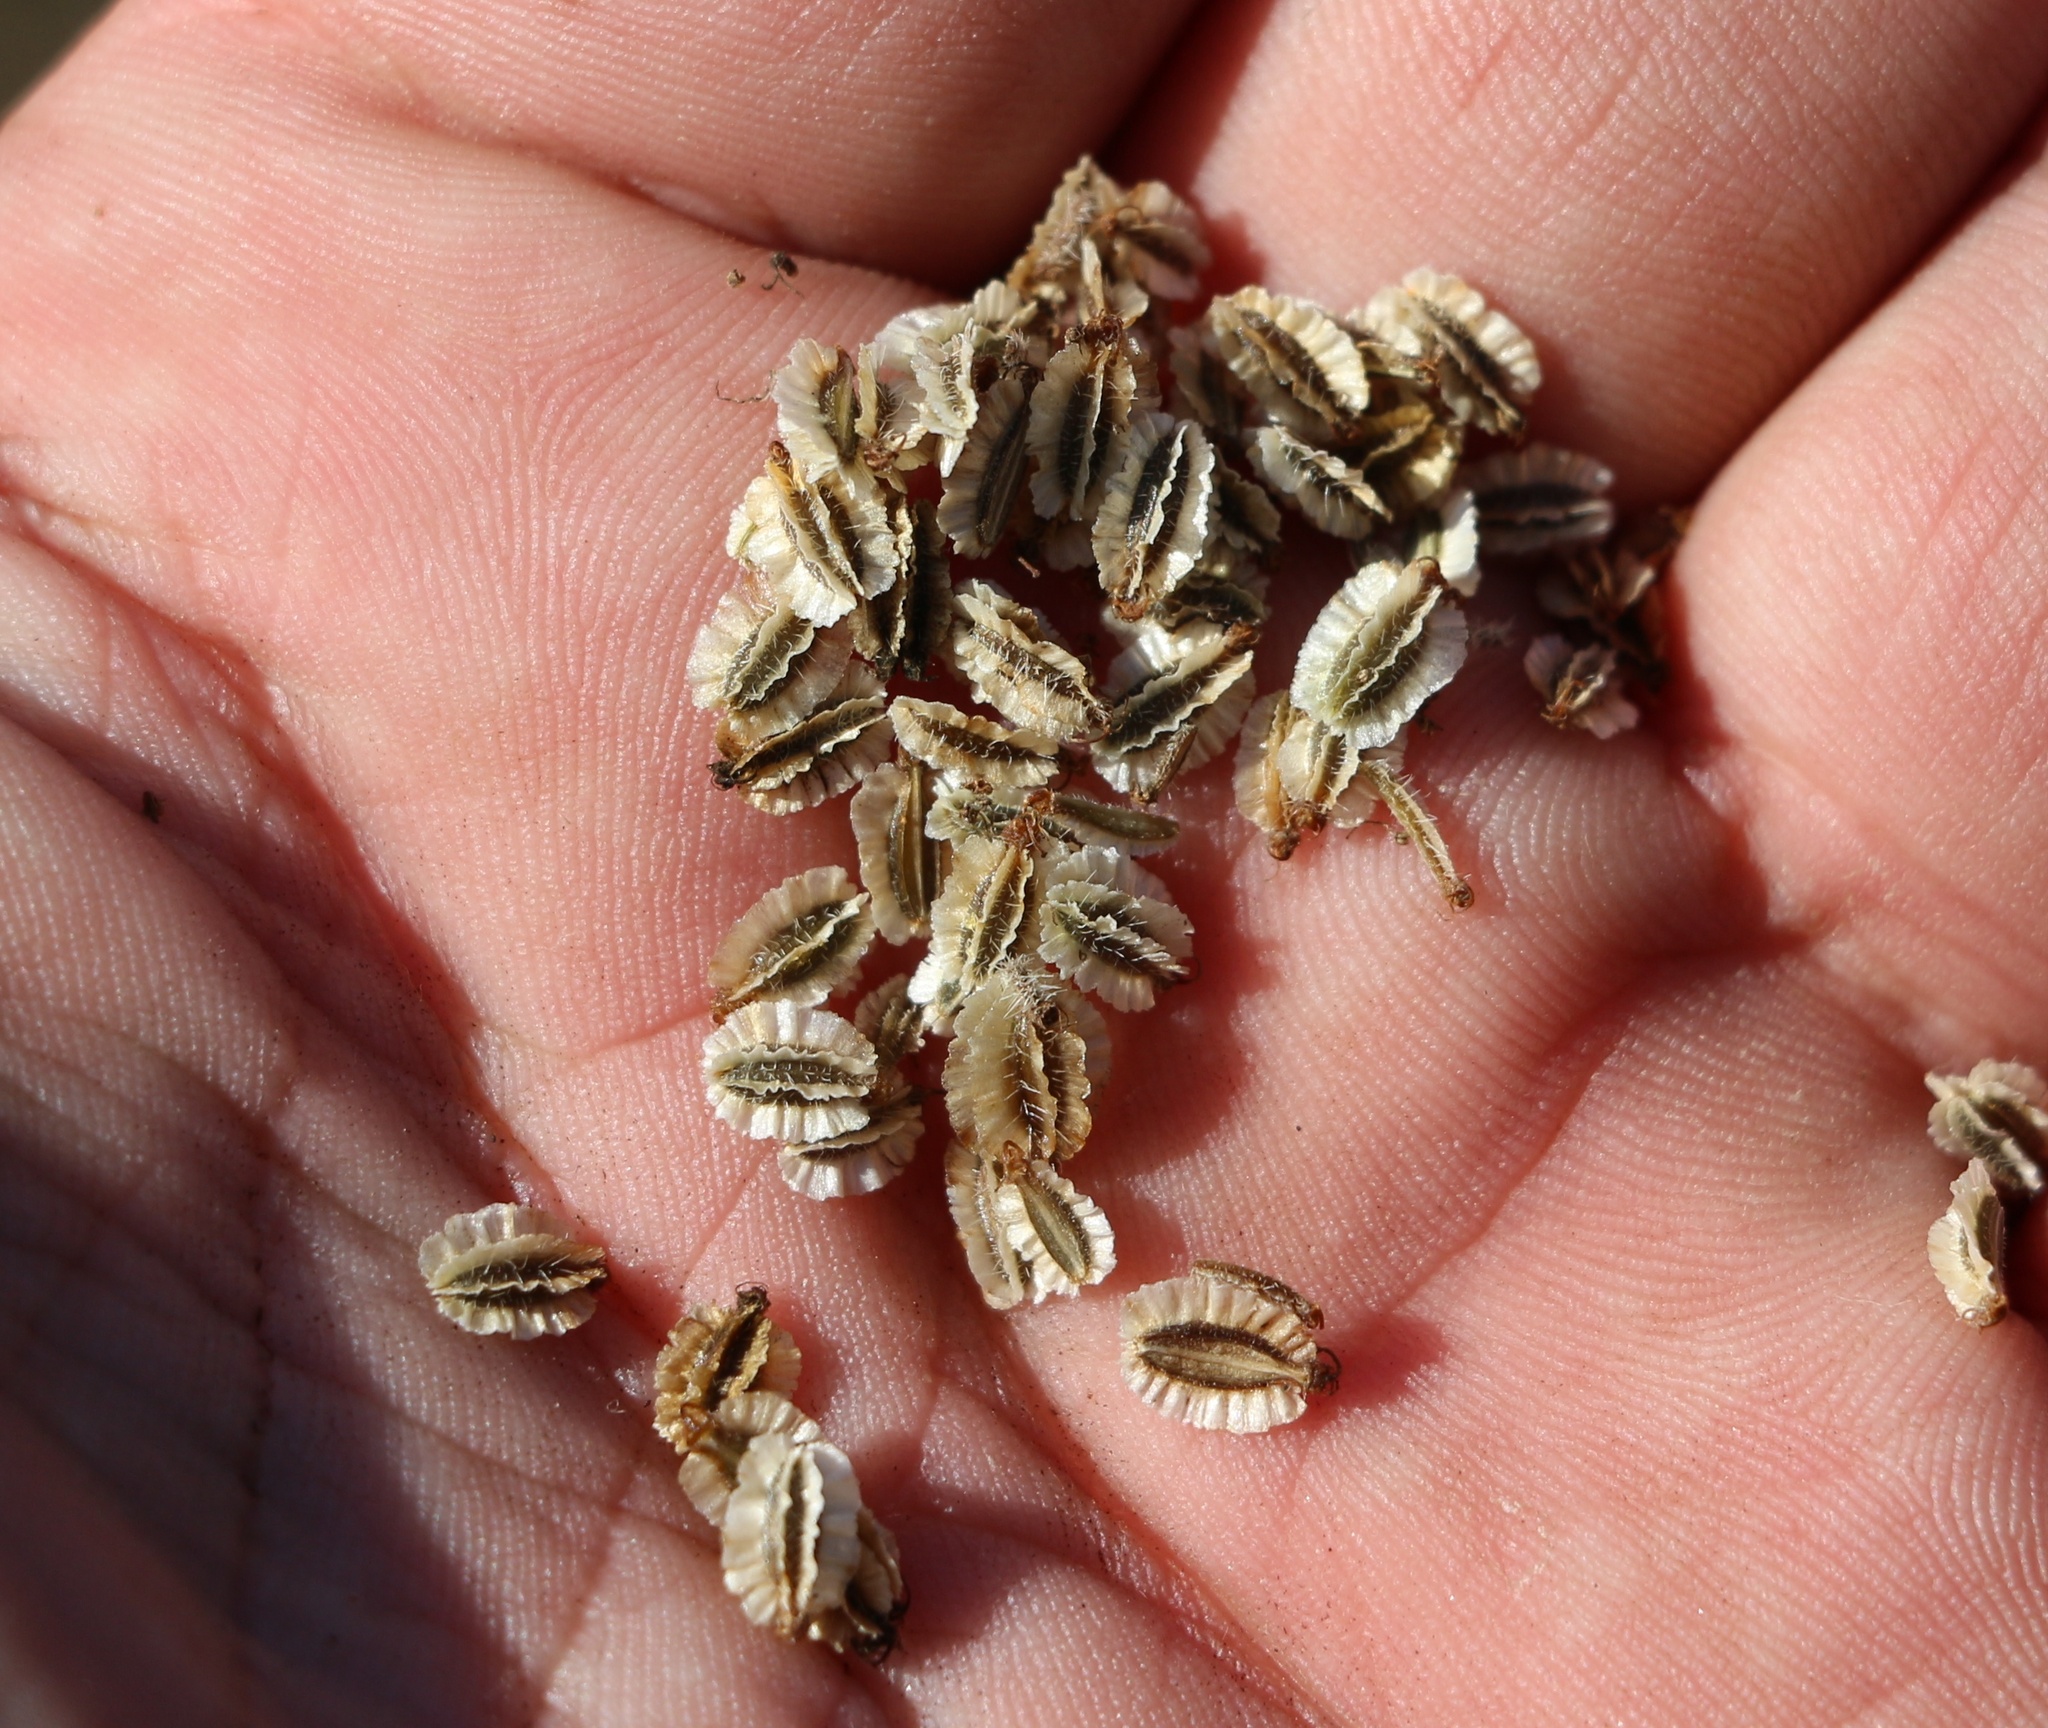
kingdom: Plantae
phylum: Tracheophyta
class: Magnoliopsida
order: Apiales
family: Apiaceae
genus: Silphiodaucus
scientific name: Silphiodaucus hispidus
